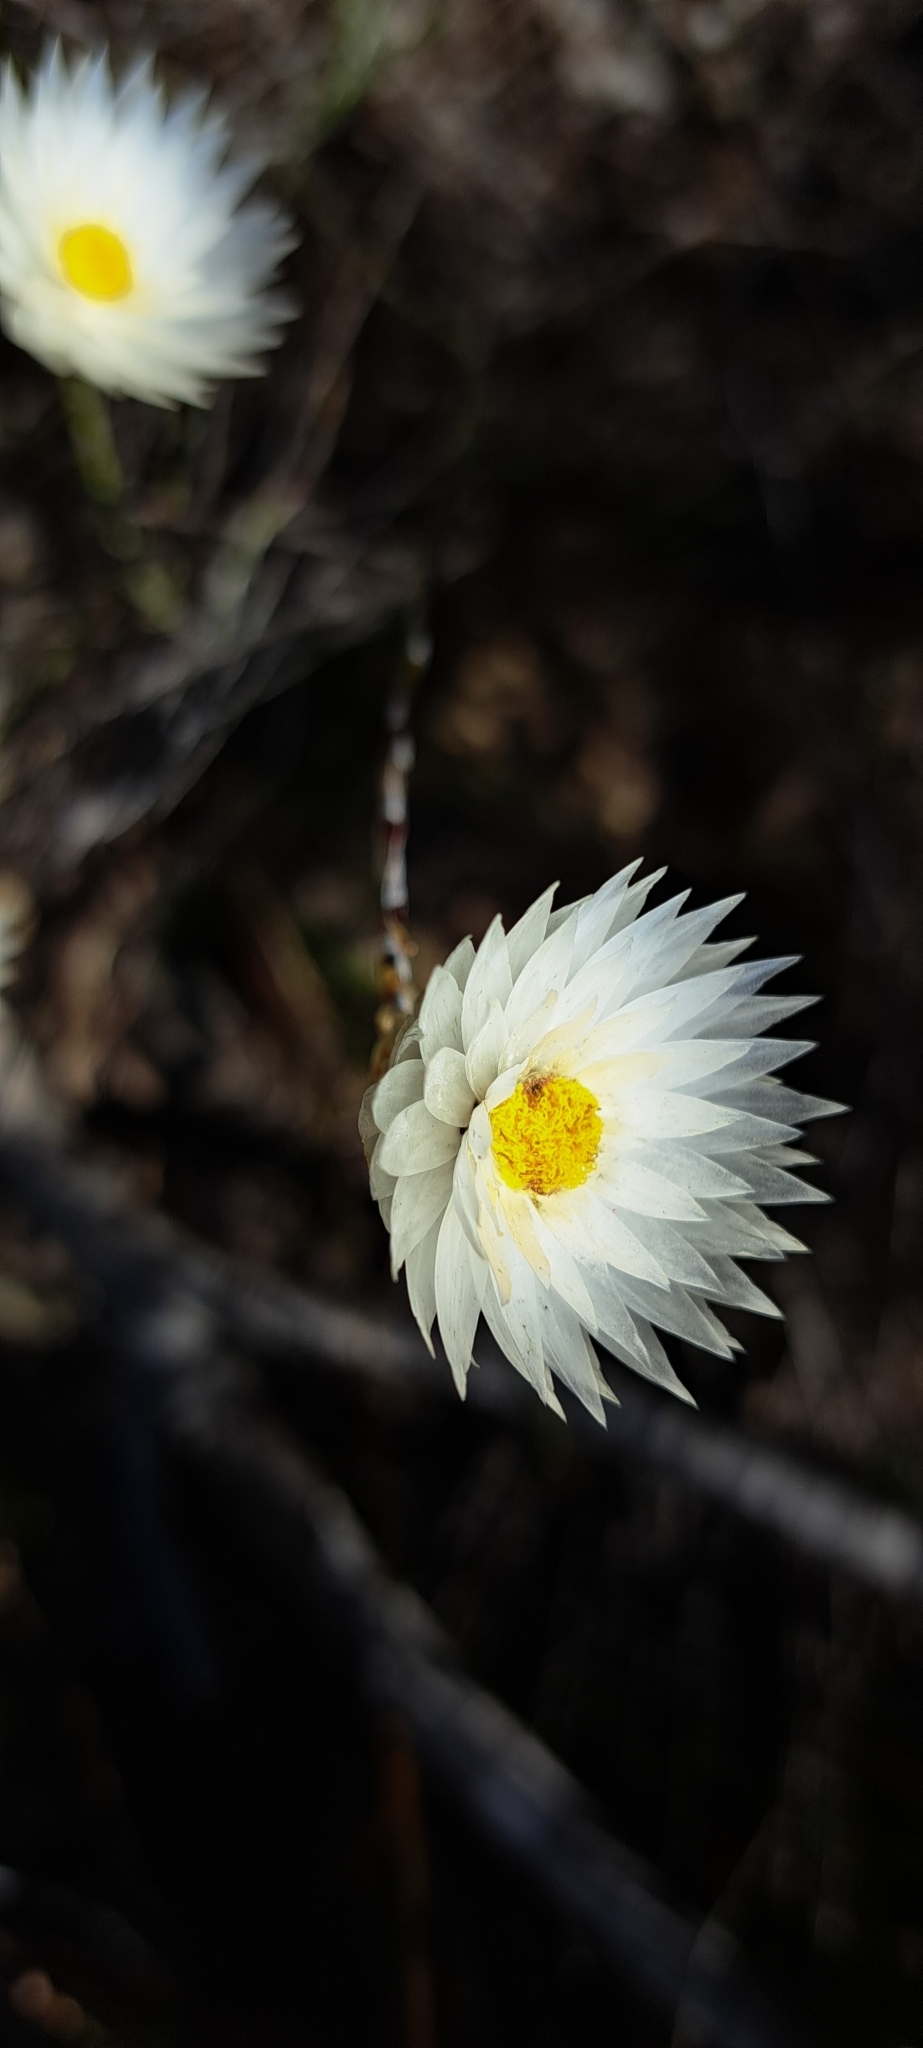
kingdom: Plantae
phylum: Tracheophyta
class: Magnoliopsida
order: Asterales
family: Asteraceae
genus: Edmondia
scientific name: Edmondia sesamoides
